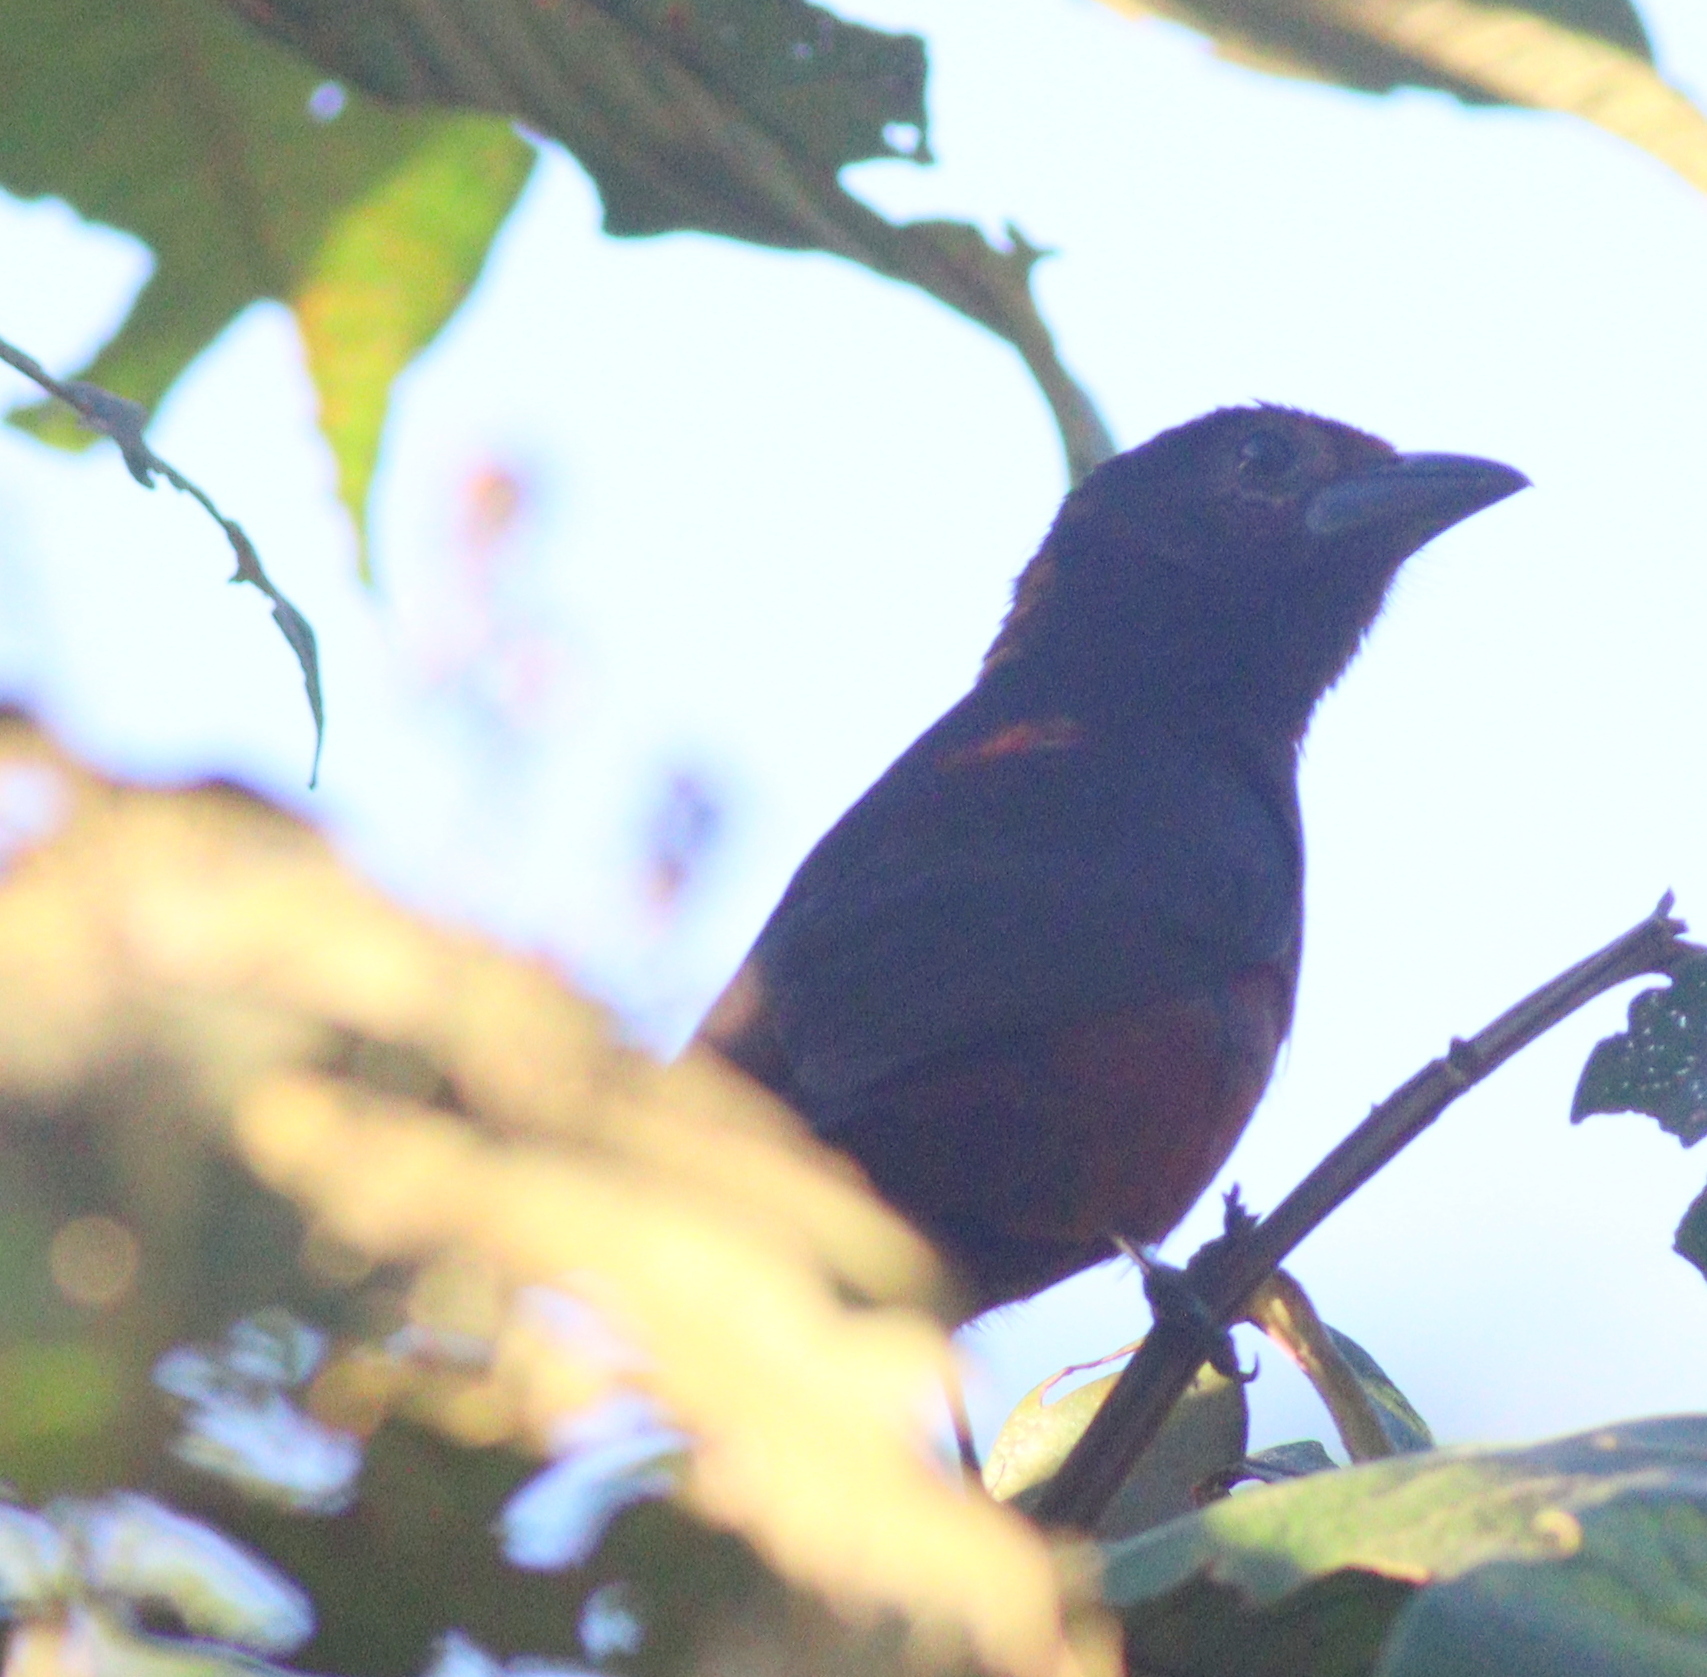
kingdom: Animalia
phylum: Chordata
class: Aves
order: Passeriformes
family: Thraupidae
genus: Ramphocelus
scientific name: Ramphocelus carbo
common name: Silver-beaked tanager
